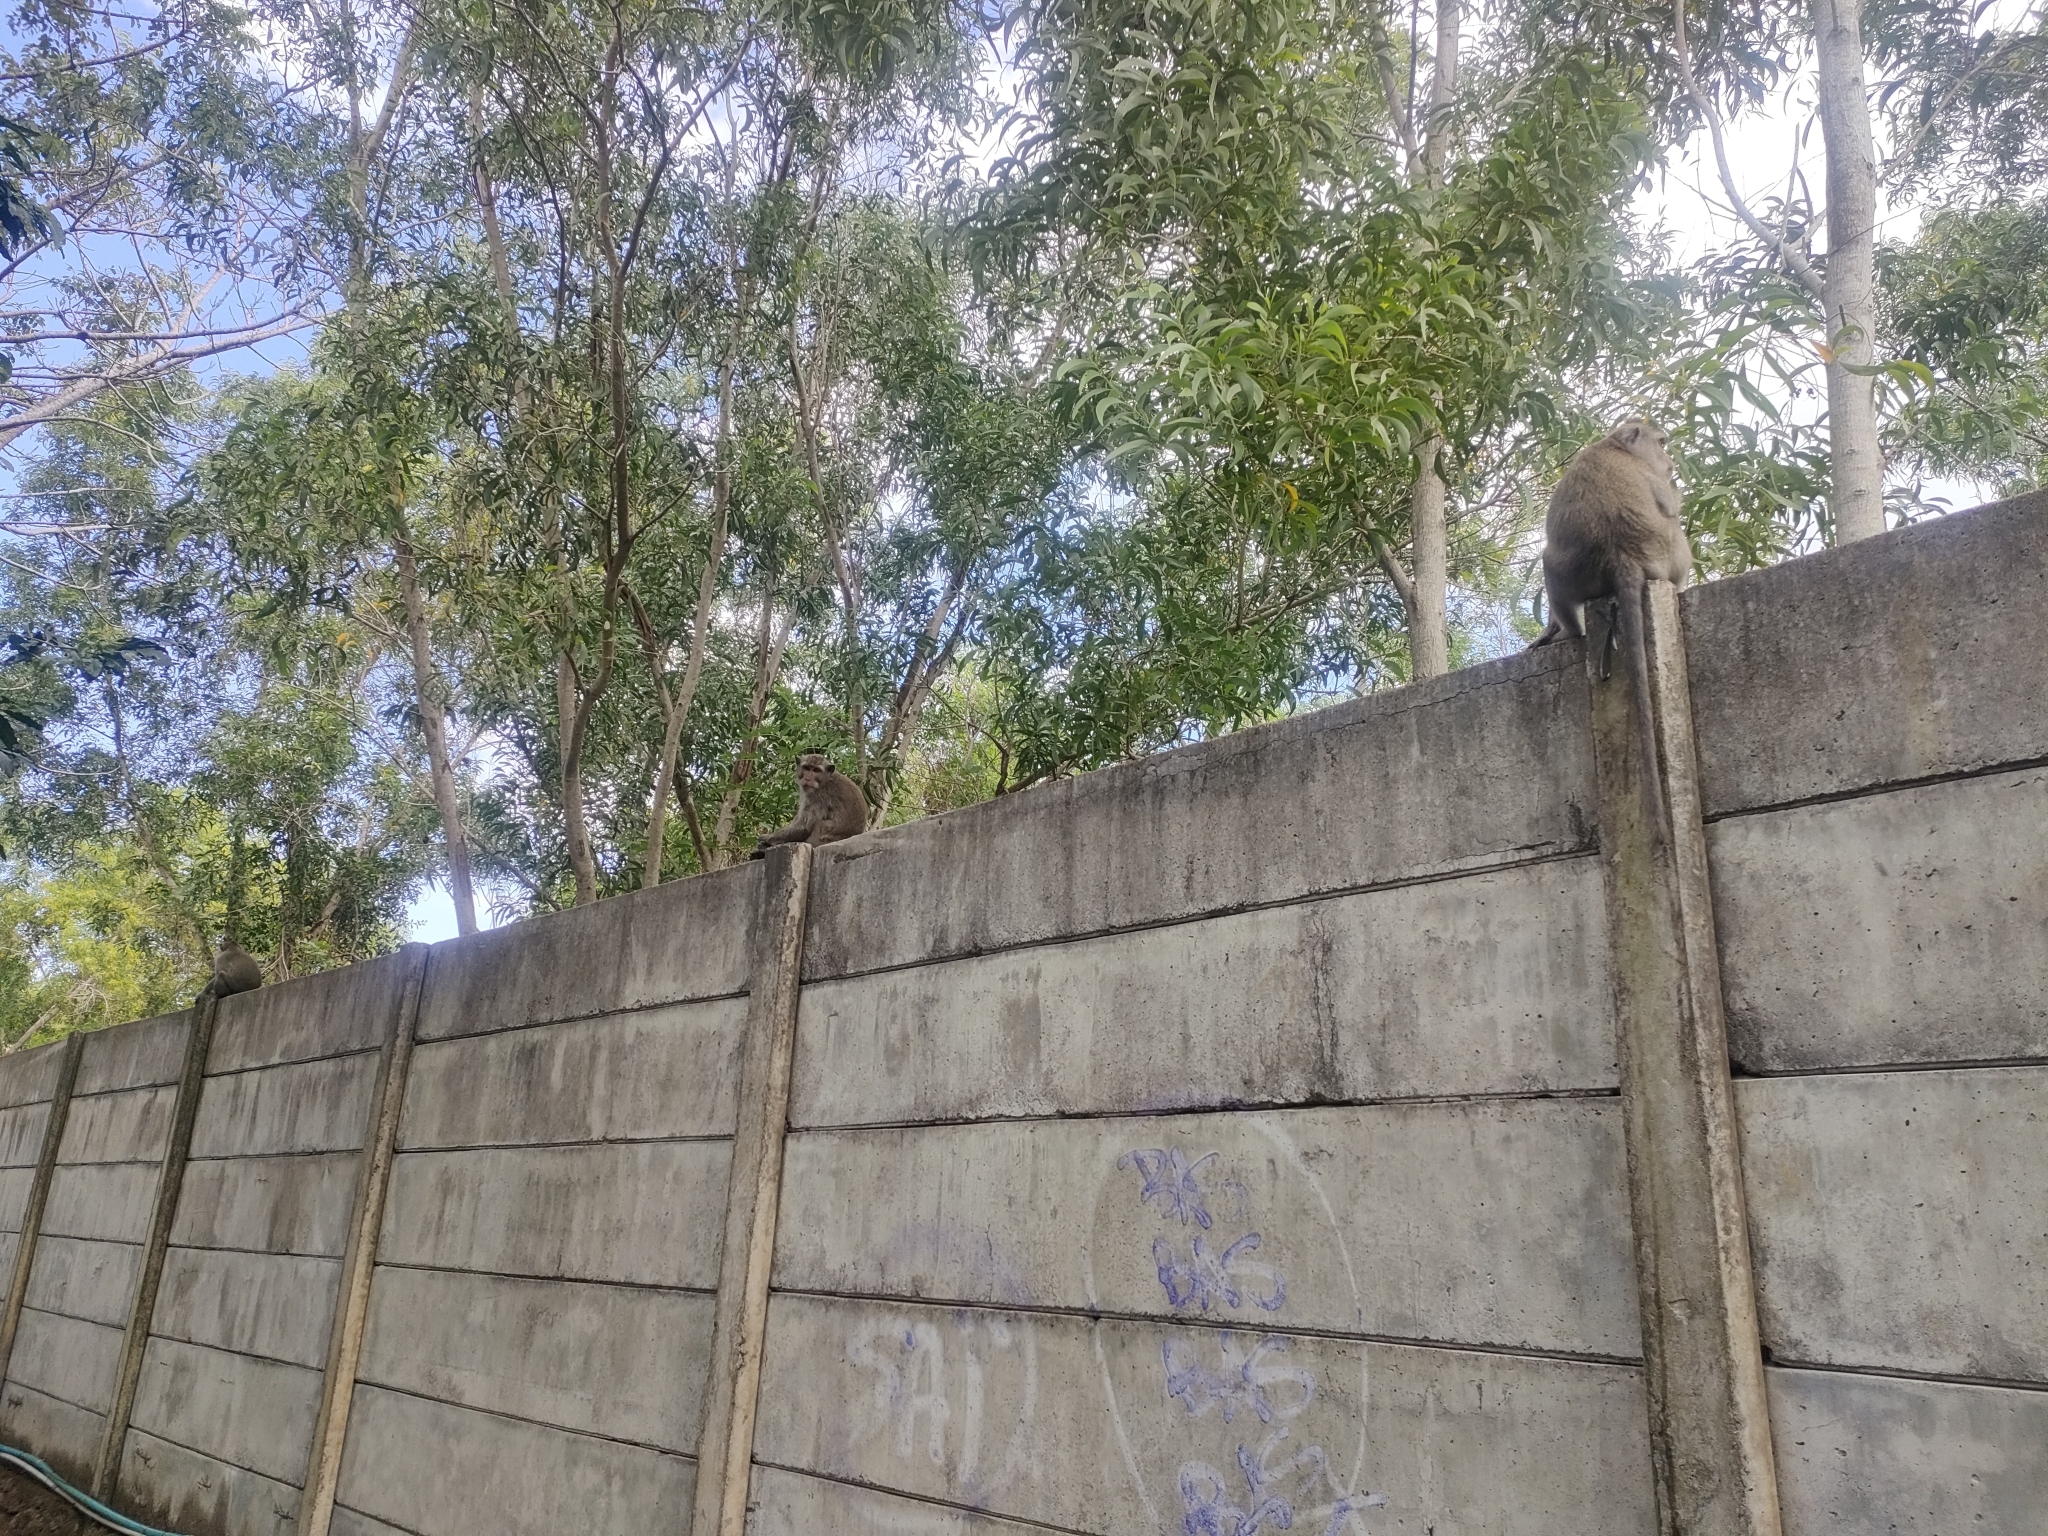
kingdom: Animalia
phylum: Chordata
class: Mammalia
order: Primates
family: Cercopithecidae
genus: Macaca
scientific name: Macaca fascicularis
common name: Crab-eating macaque
